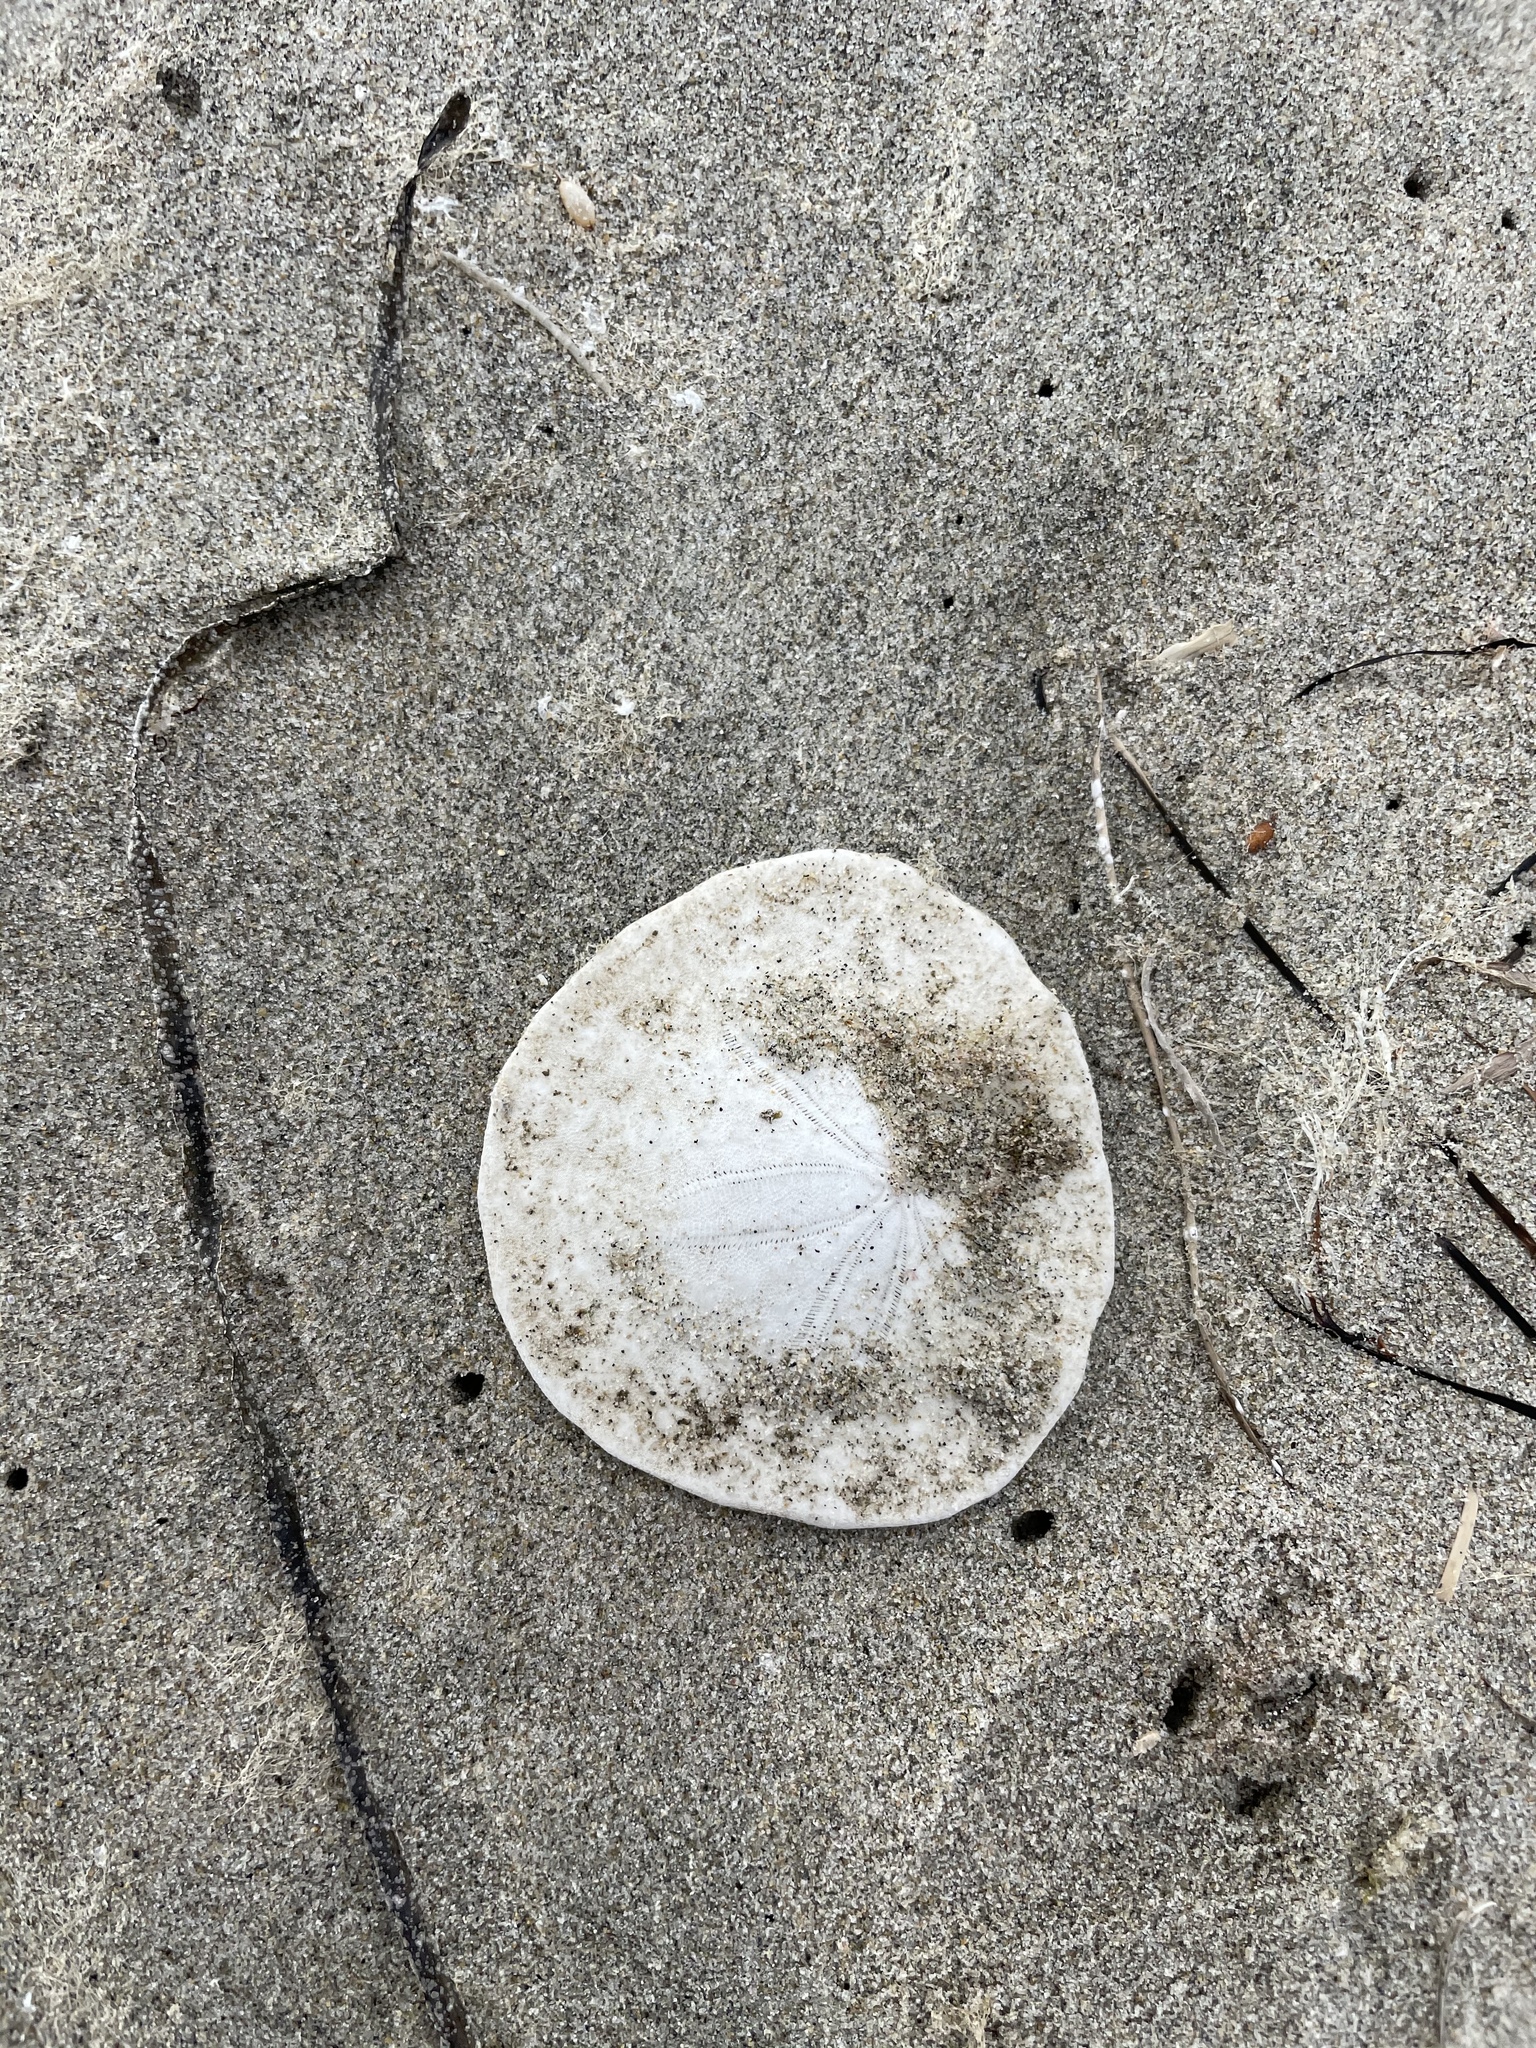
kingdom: Animalia
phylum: Echinodermata
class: Echinoidea
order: Echinolampadacea
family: Dendrasteridae
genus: Dendraster
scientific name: Dendraster excentricus
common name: Eccentric sand dollar sea urchin
